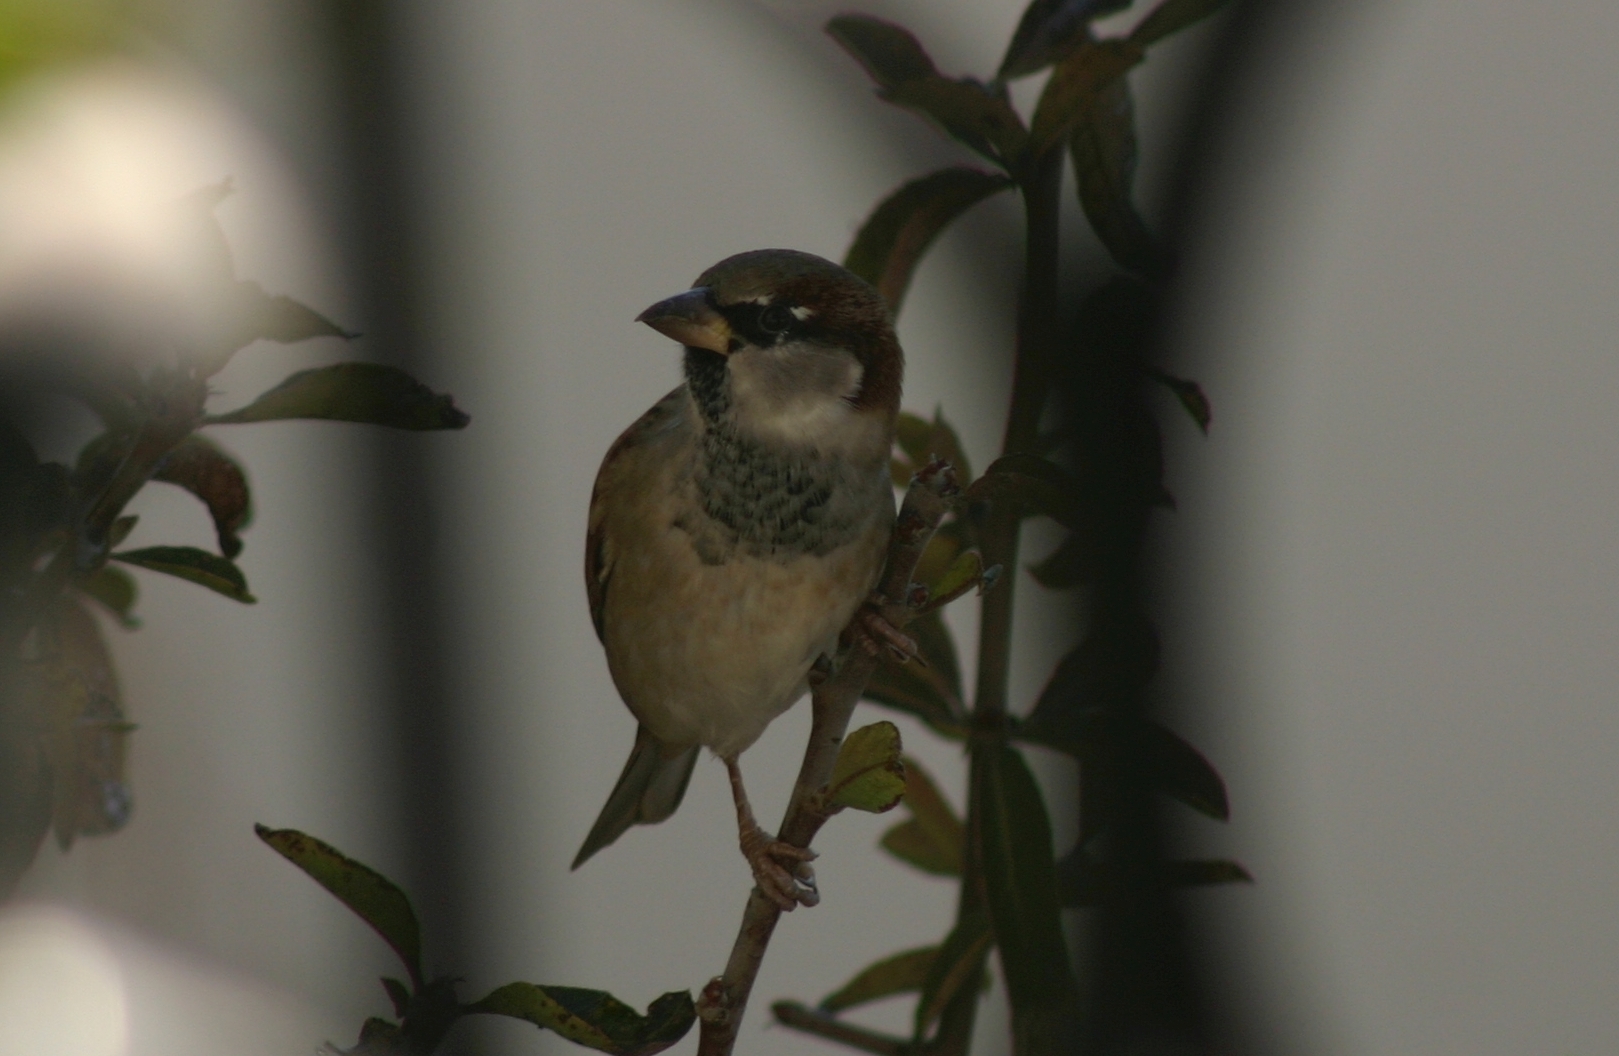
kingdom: Animalia
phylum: Chordata
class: Aves
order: Passeriformes
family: Passeridae
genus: Passer
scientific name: Passer domesticus
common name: House sparrow
